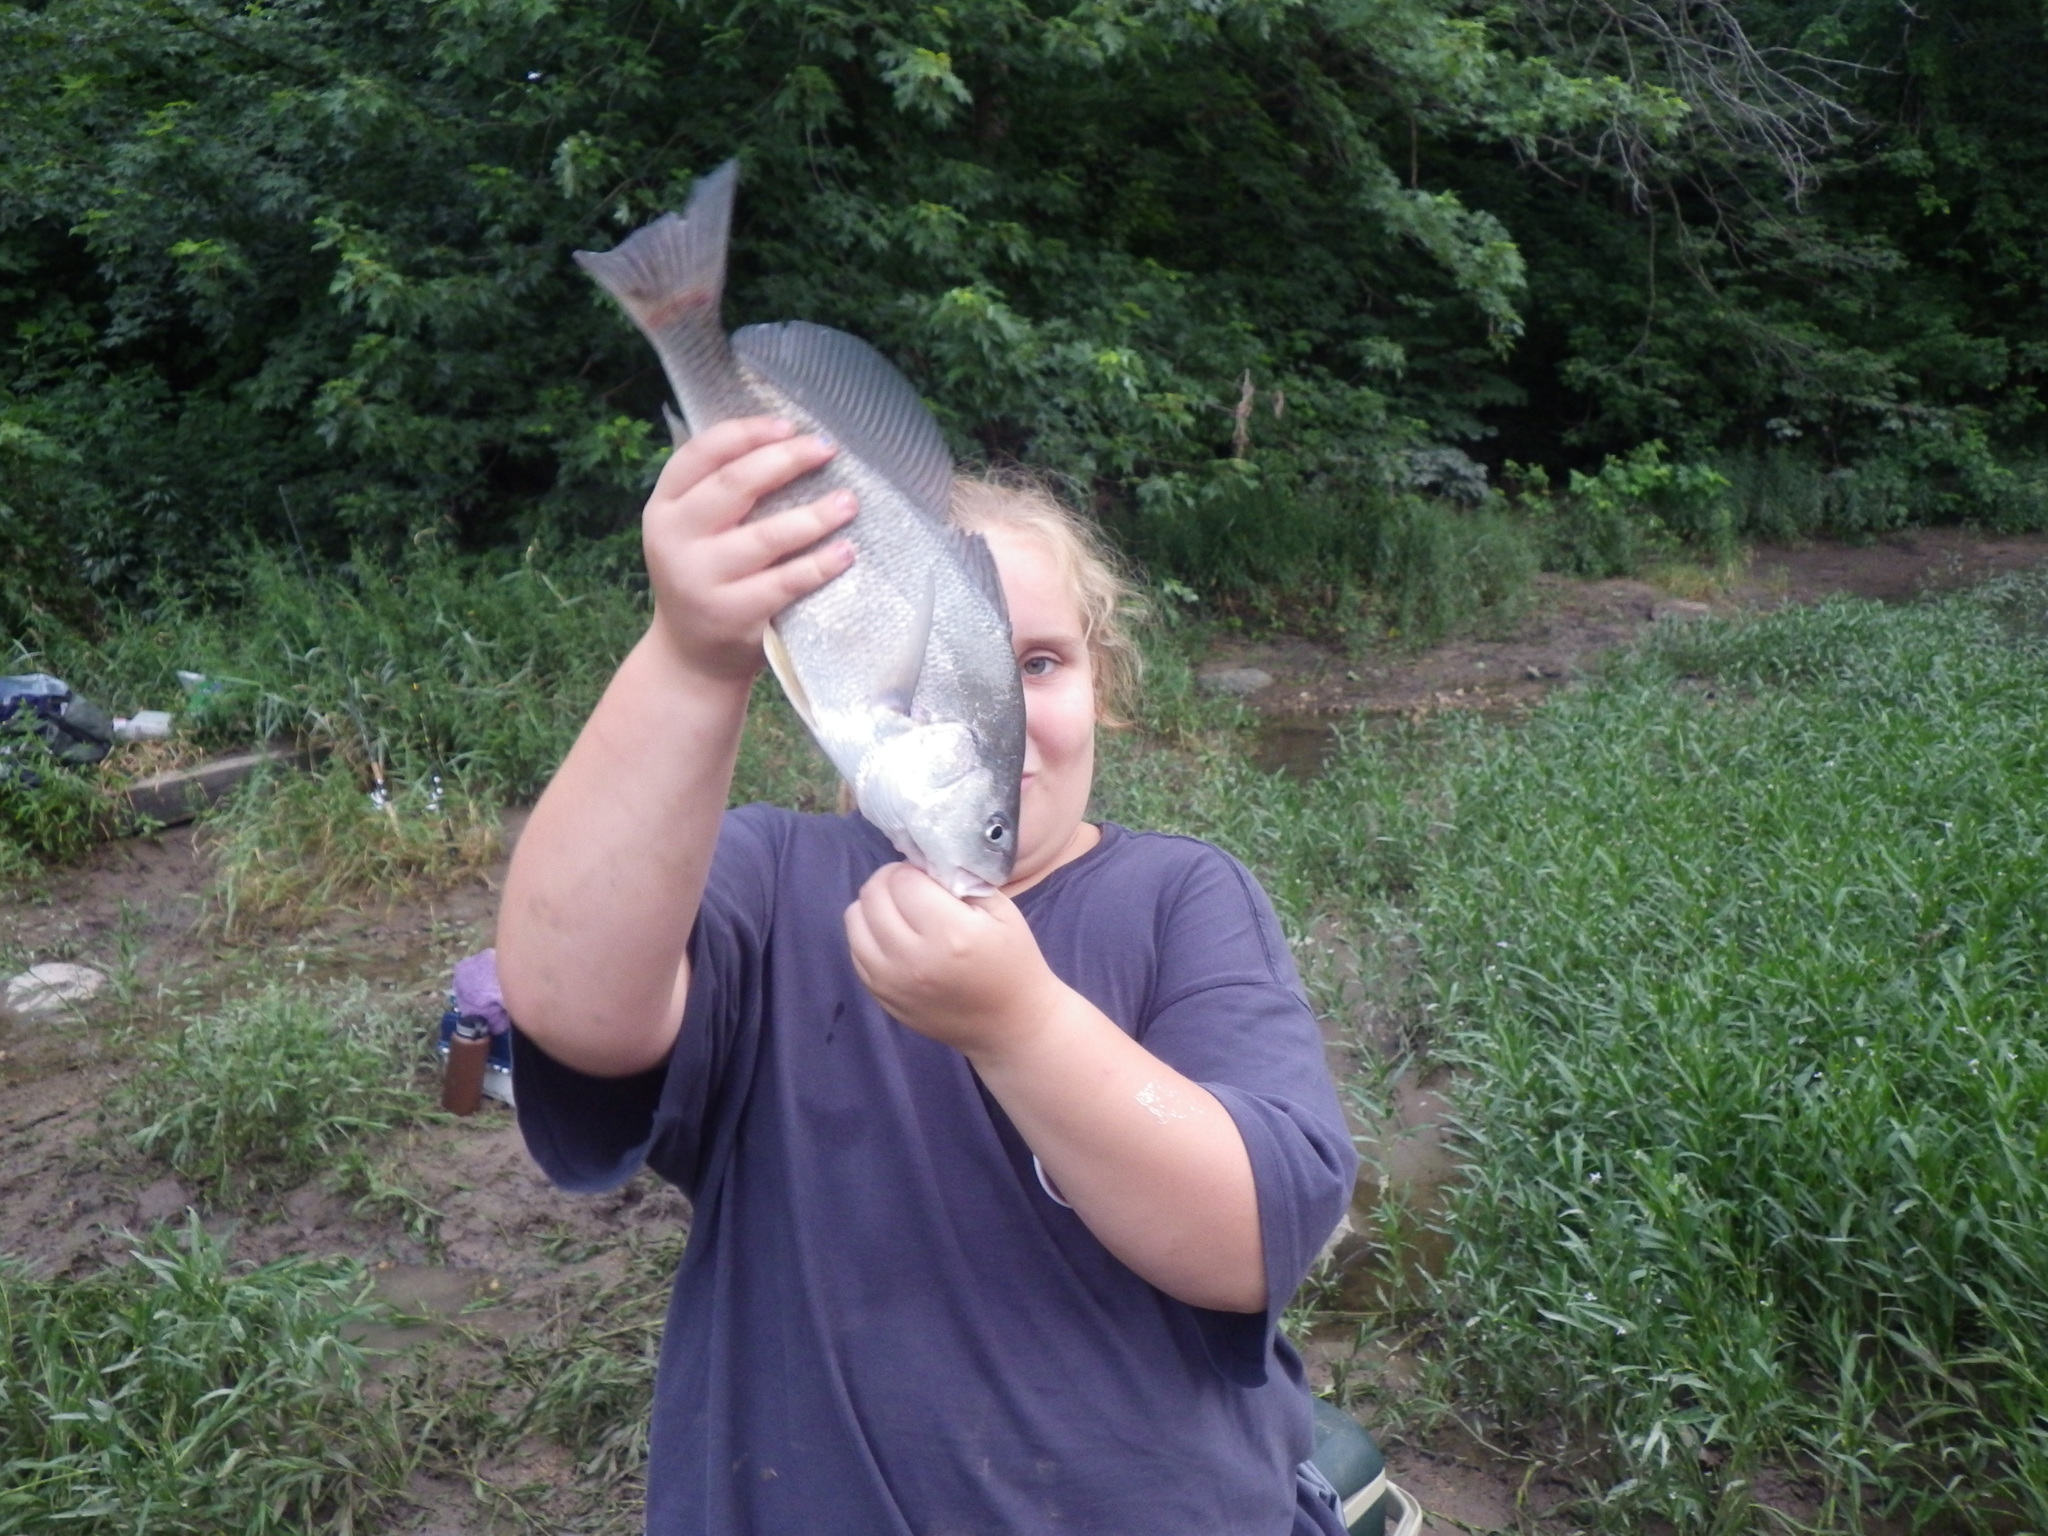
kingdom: Animalia
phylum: Chordata
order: Perciformes
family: Sciaenidae
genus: Aplodinotus
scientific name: Aplodinotus grunniens
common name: Freshwater drum
